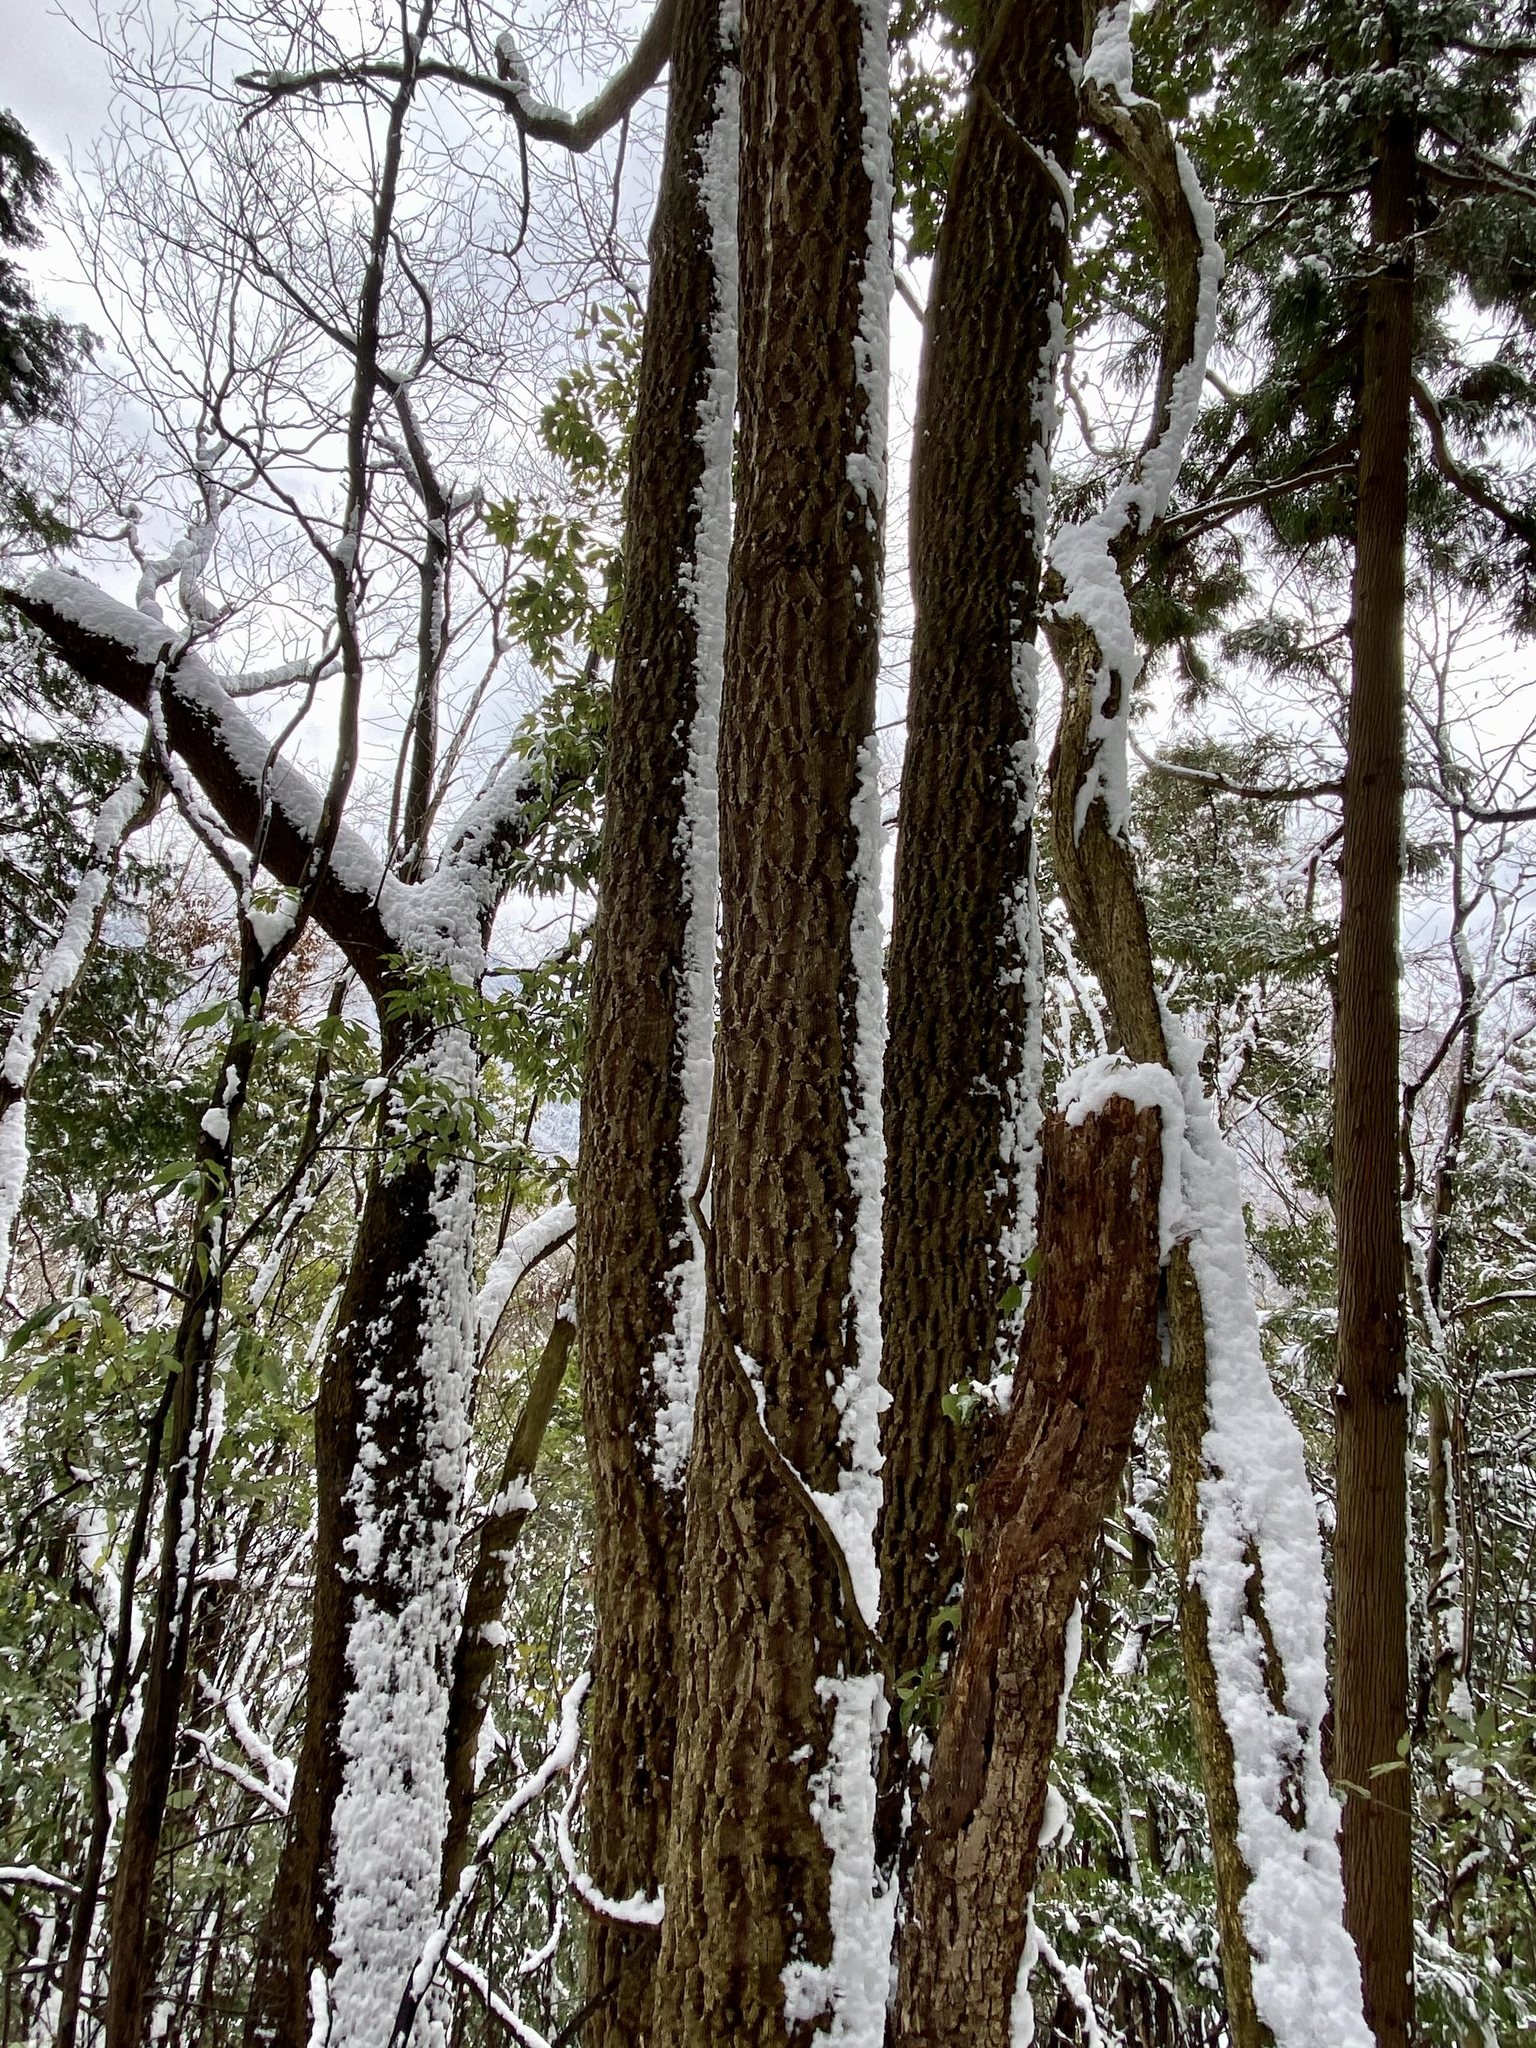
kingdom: Plantae
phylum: Tracheophyta
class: Magnoliopsida
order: Fagales
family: Fagaceae
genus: Quercus
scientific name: Quercus acutissima
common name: Sawtooth oak
